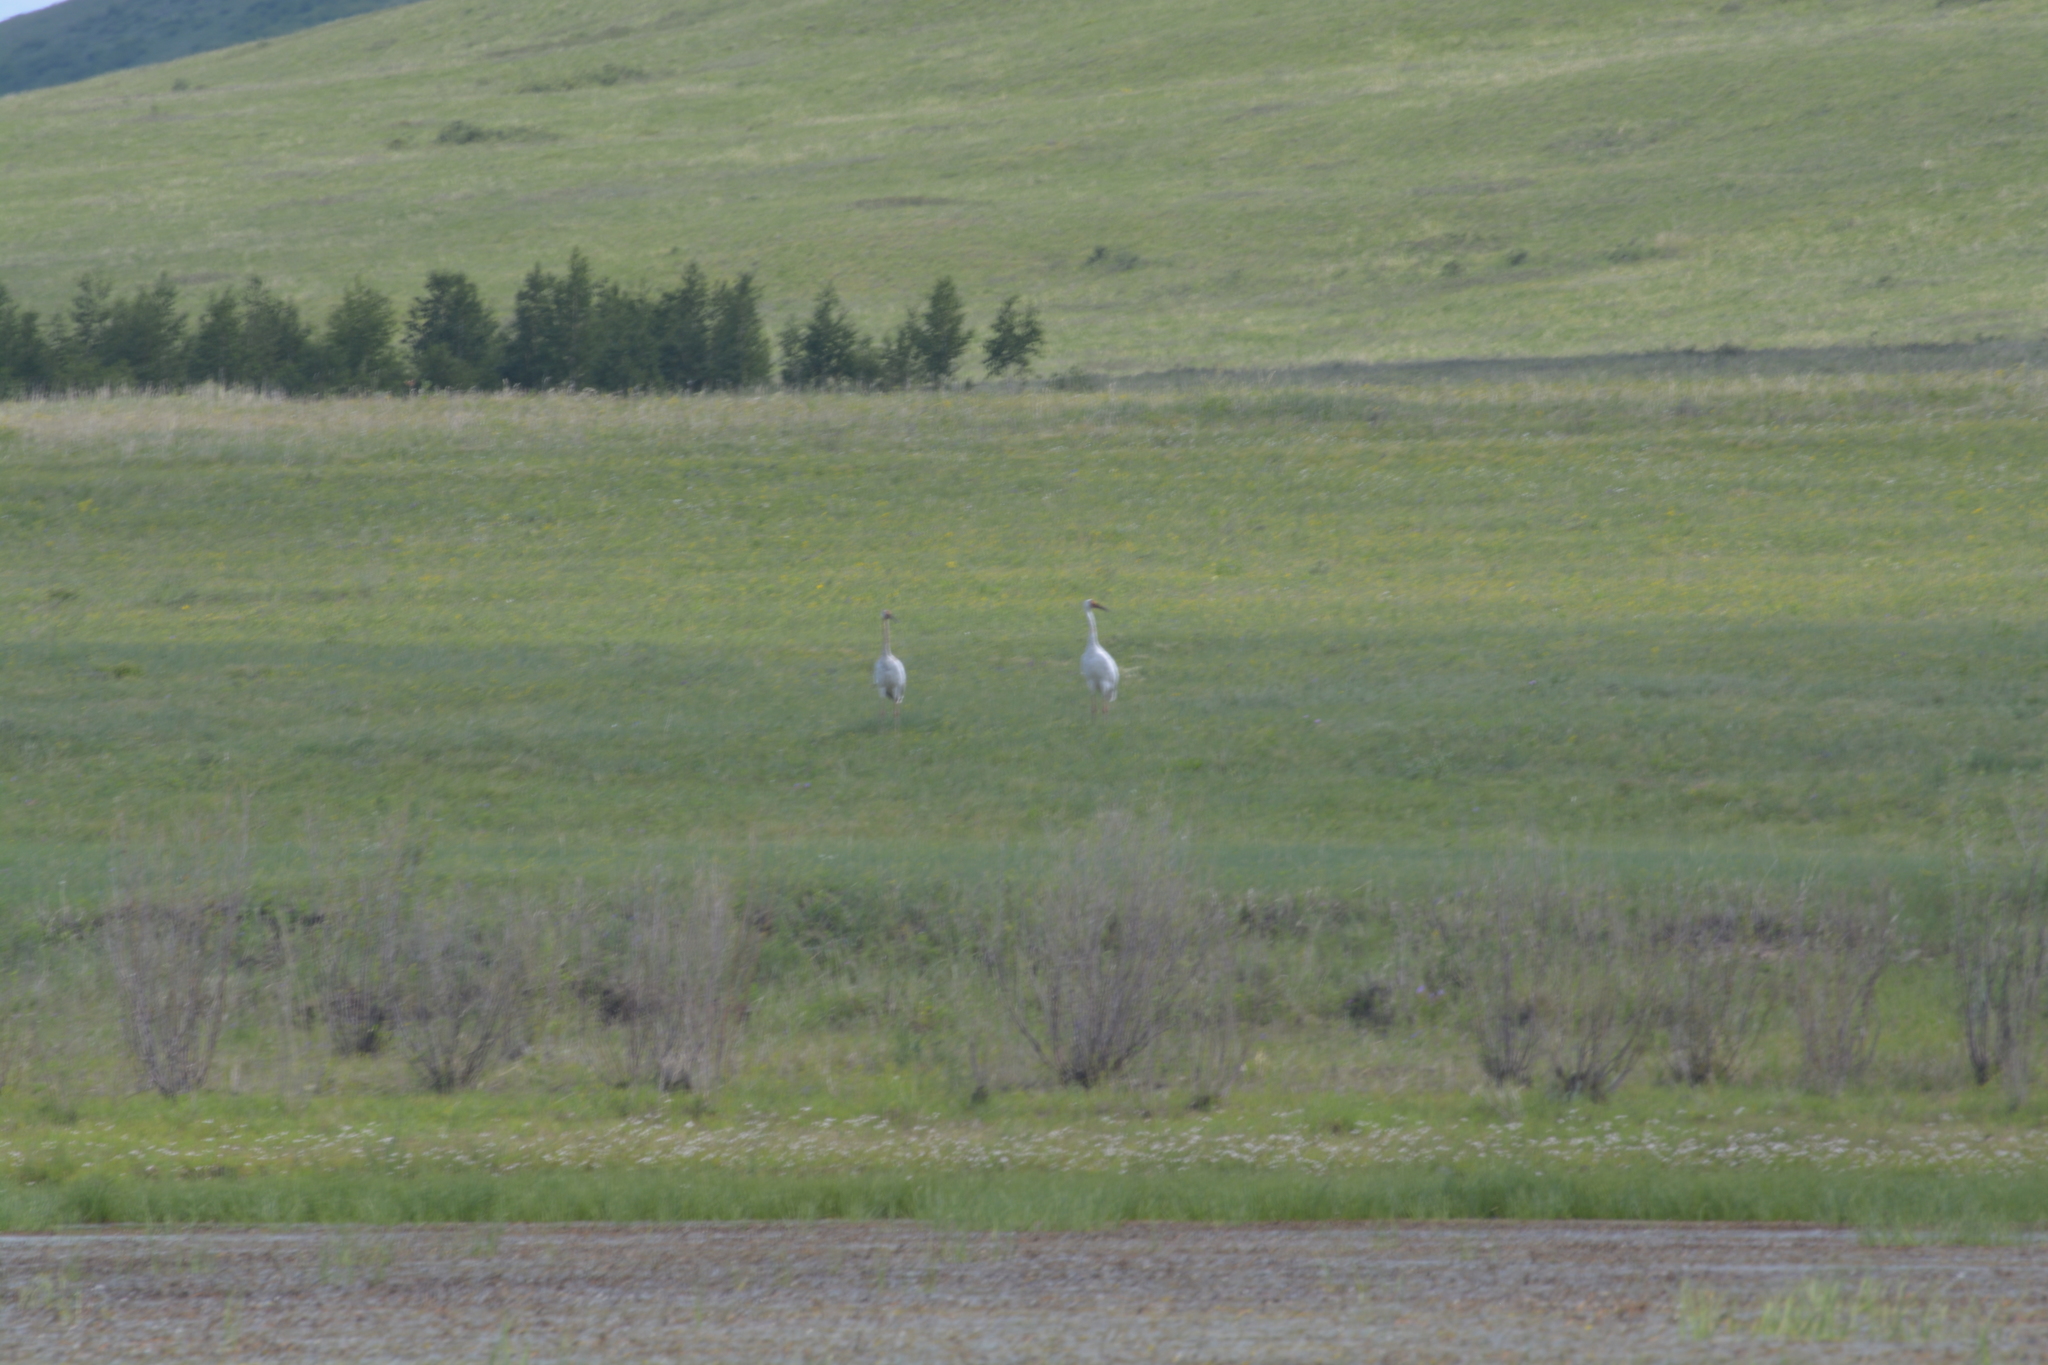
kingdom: Animalia
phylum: Chordata
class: Aves
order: Gruiformes
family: Gruidae
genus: Grus
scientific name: Grus leucogeranus
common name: Siberian crane
